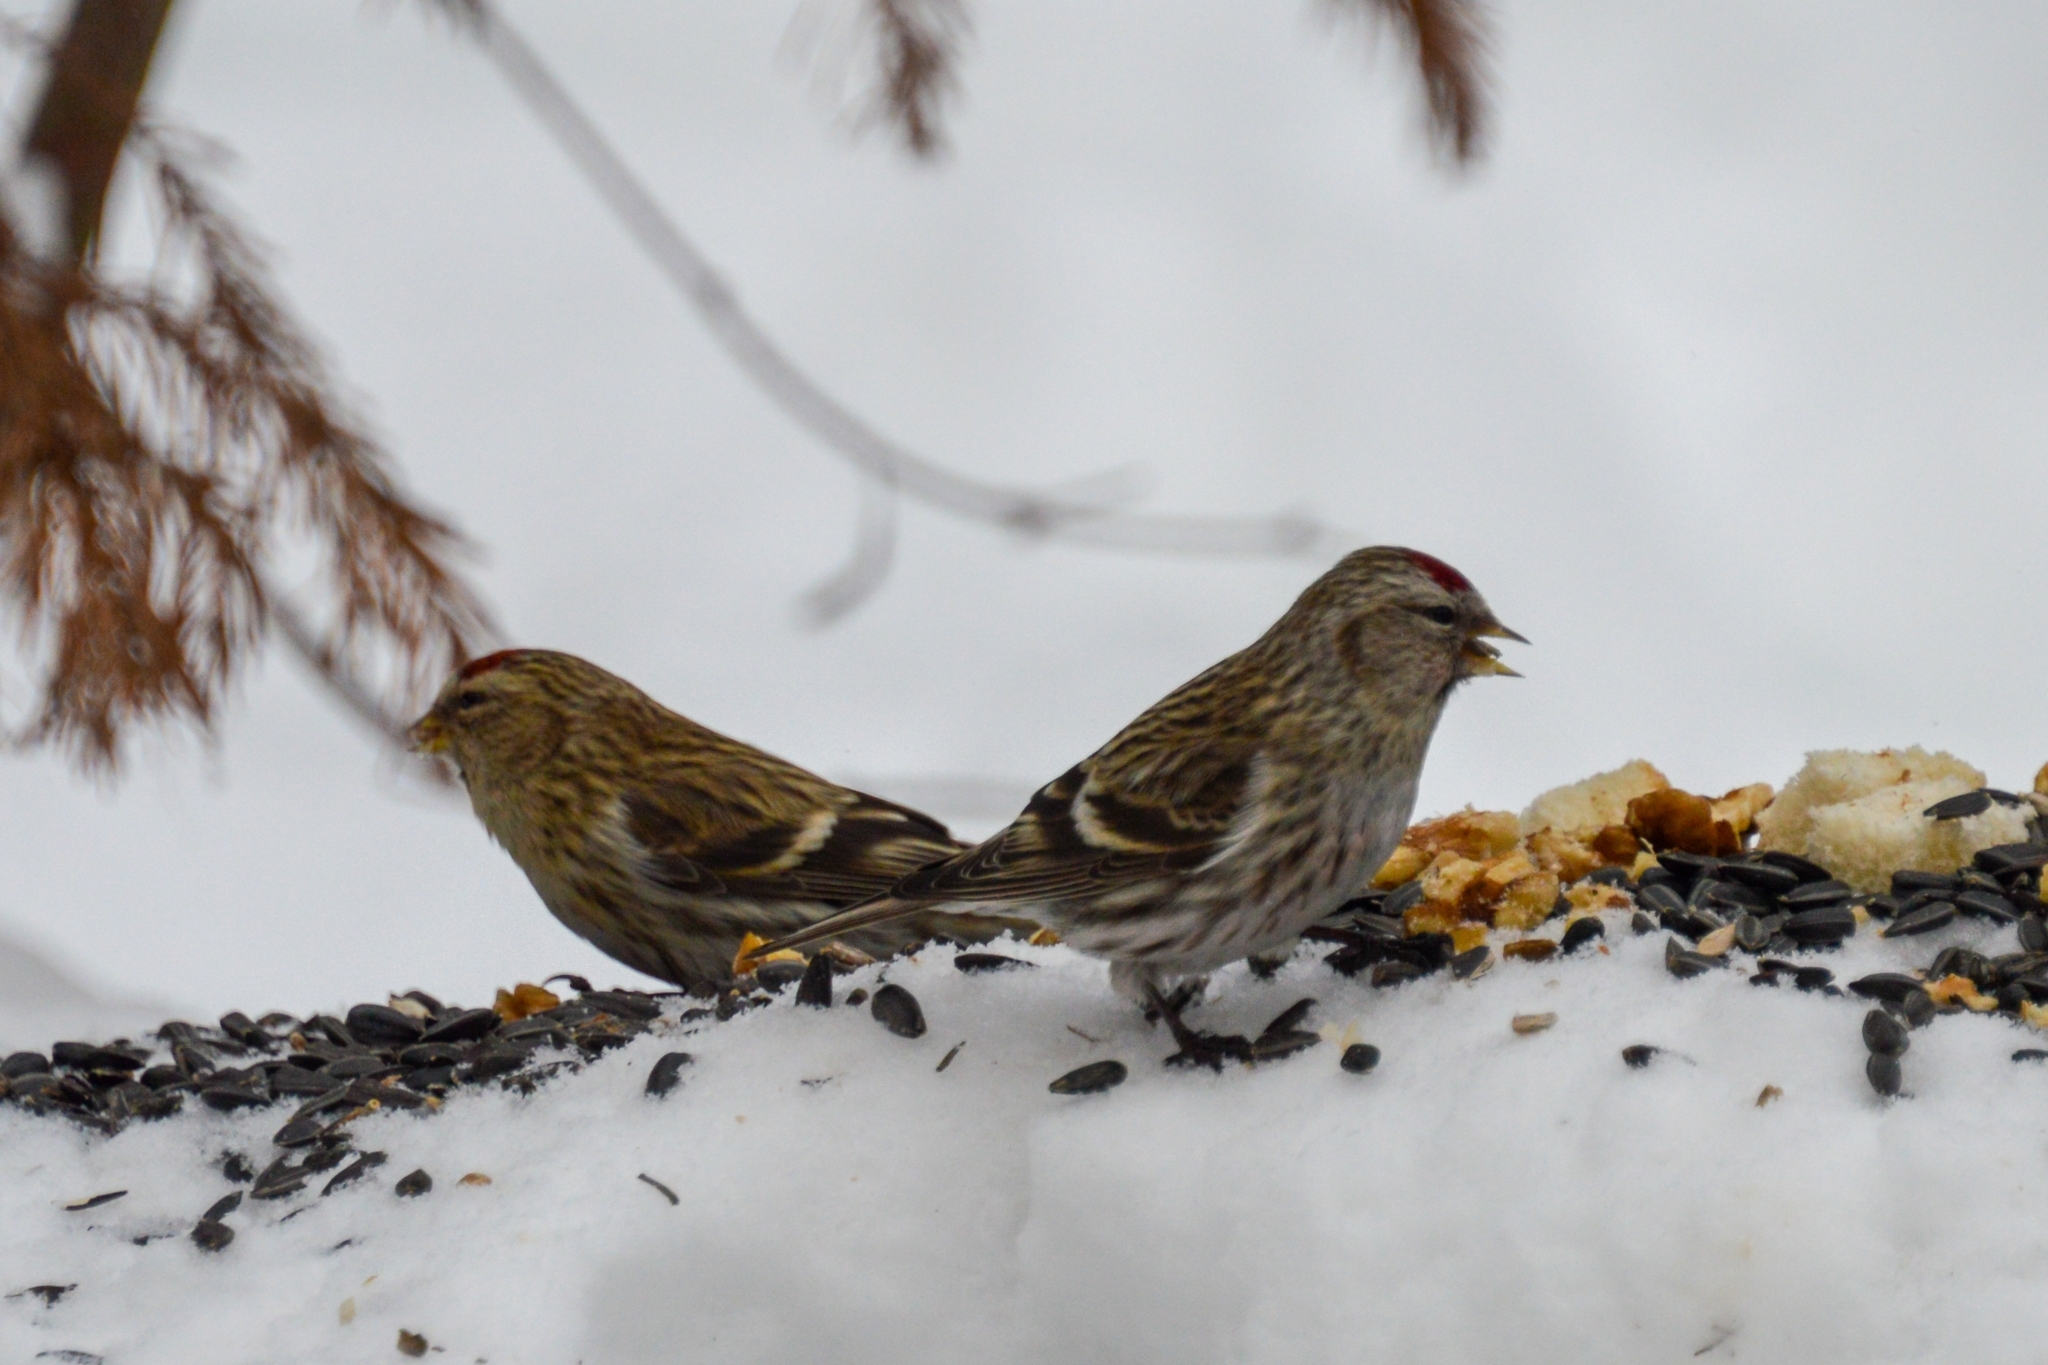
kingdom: Animalia
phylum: Chordata
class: Aves
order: Passeriformes
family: Fringillidae
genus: Acanthis
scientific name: Acanthis flammea
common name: Common redpoll
